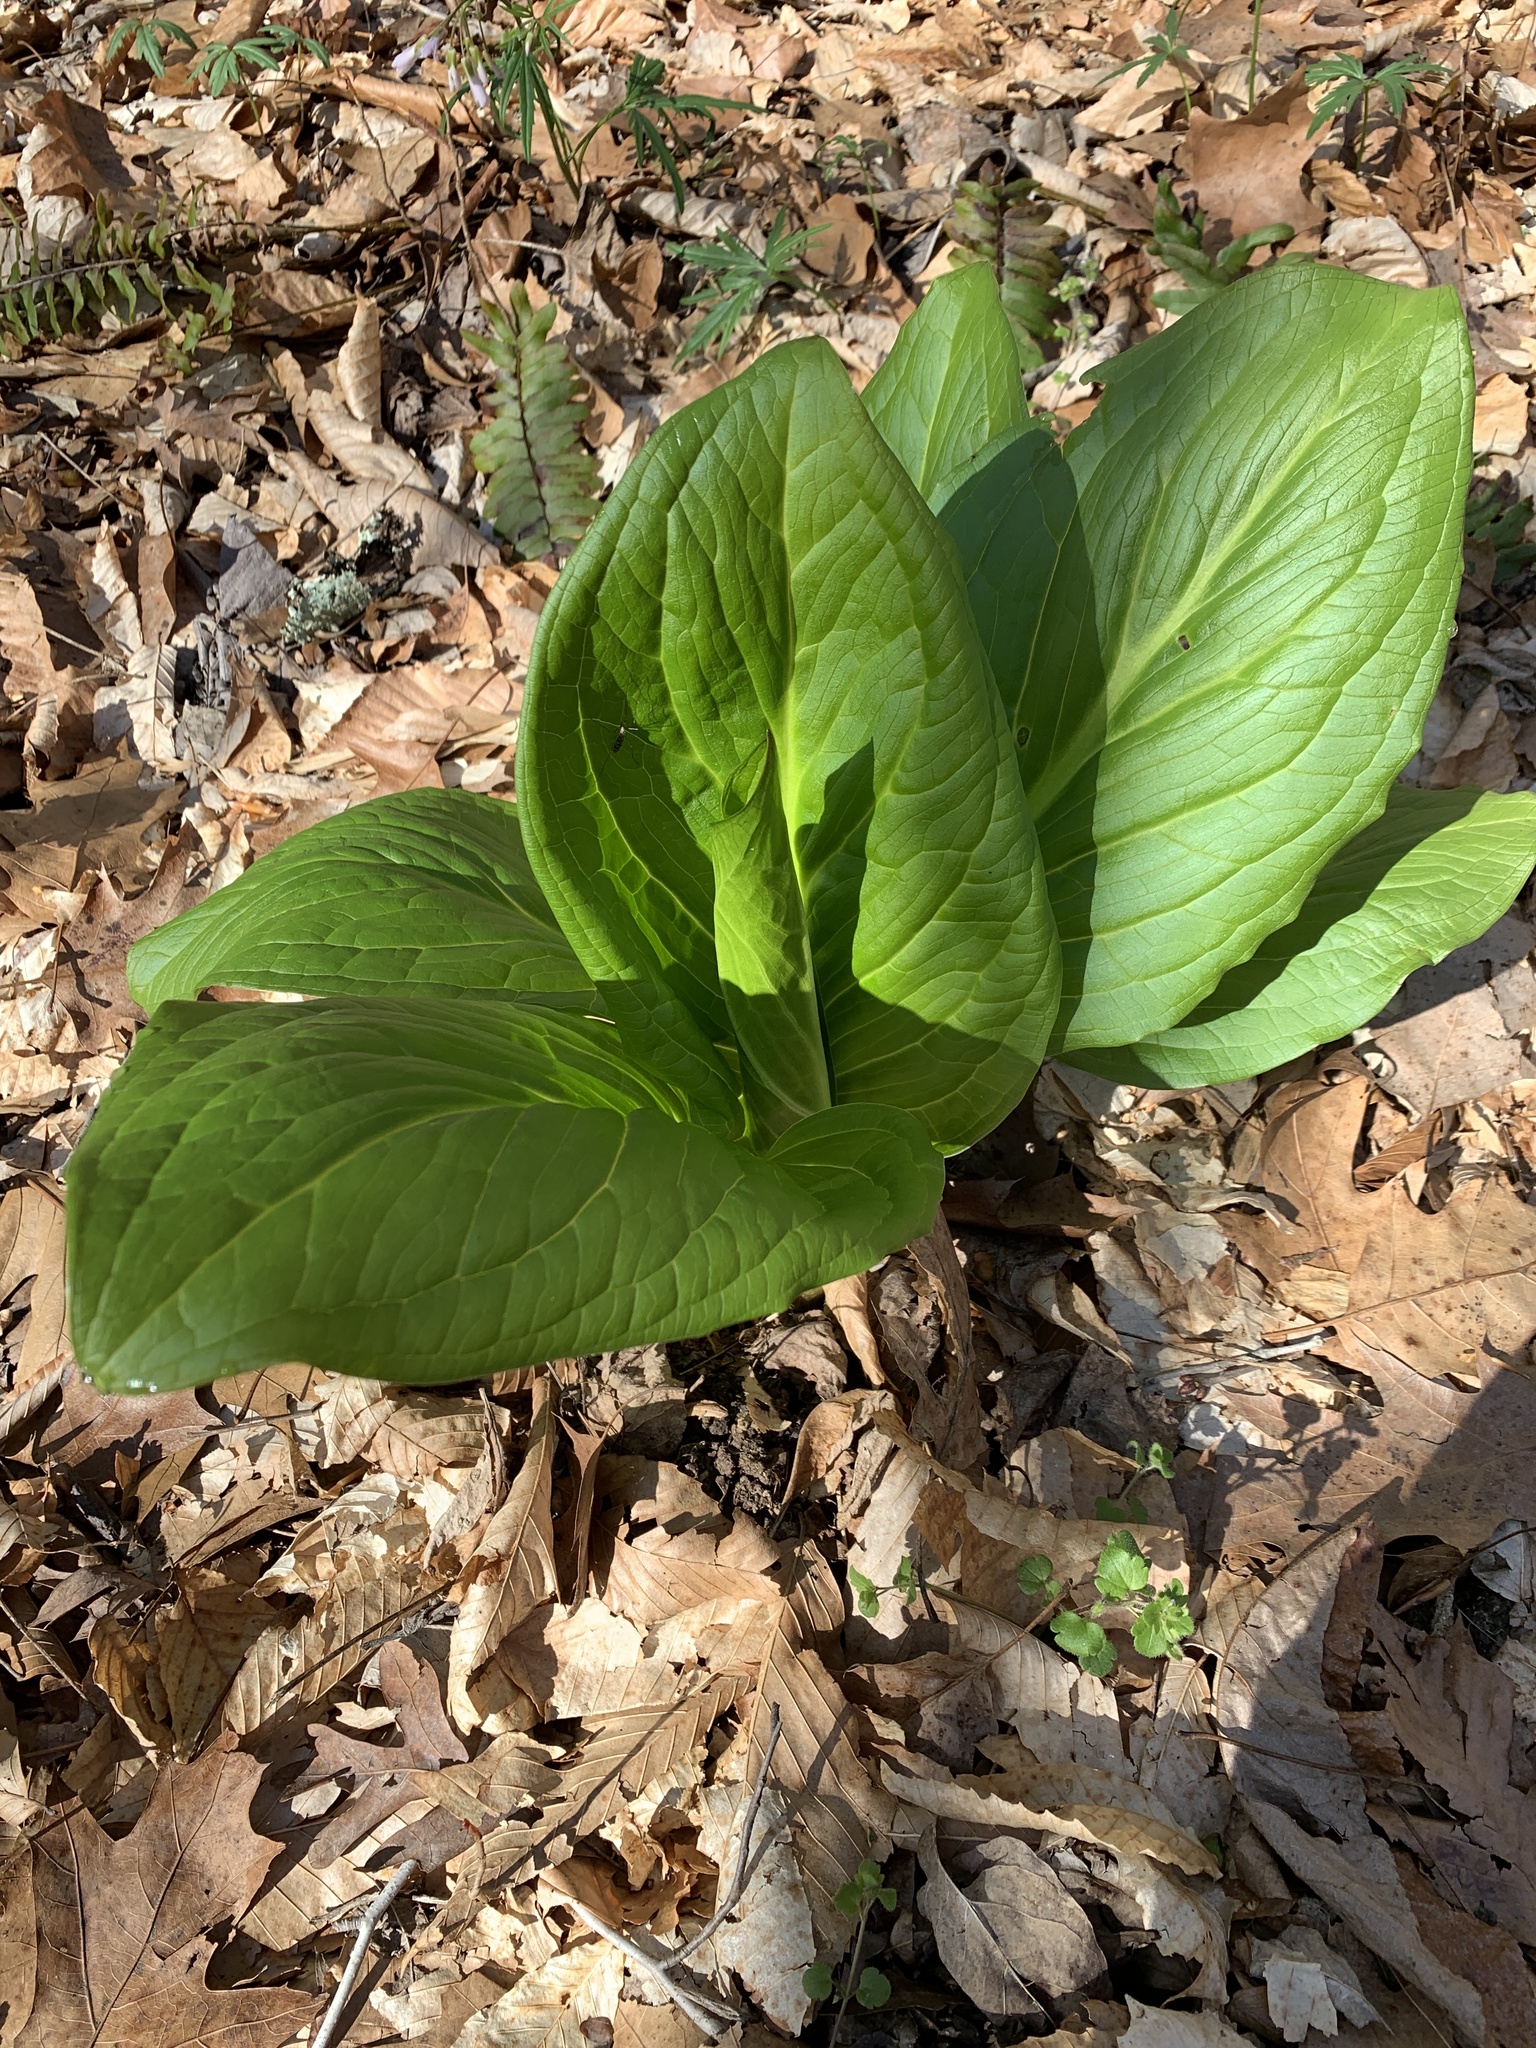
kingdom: Plantae
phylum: Tracheophyta
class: Liliopsida
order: Alismatales
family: Araceae
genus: Symplocarpus
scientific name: Symplocarpus foetidus
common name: Eastern skunk cabbage
